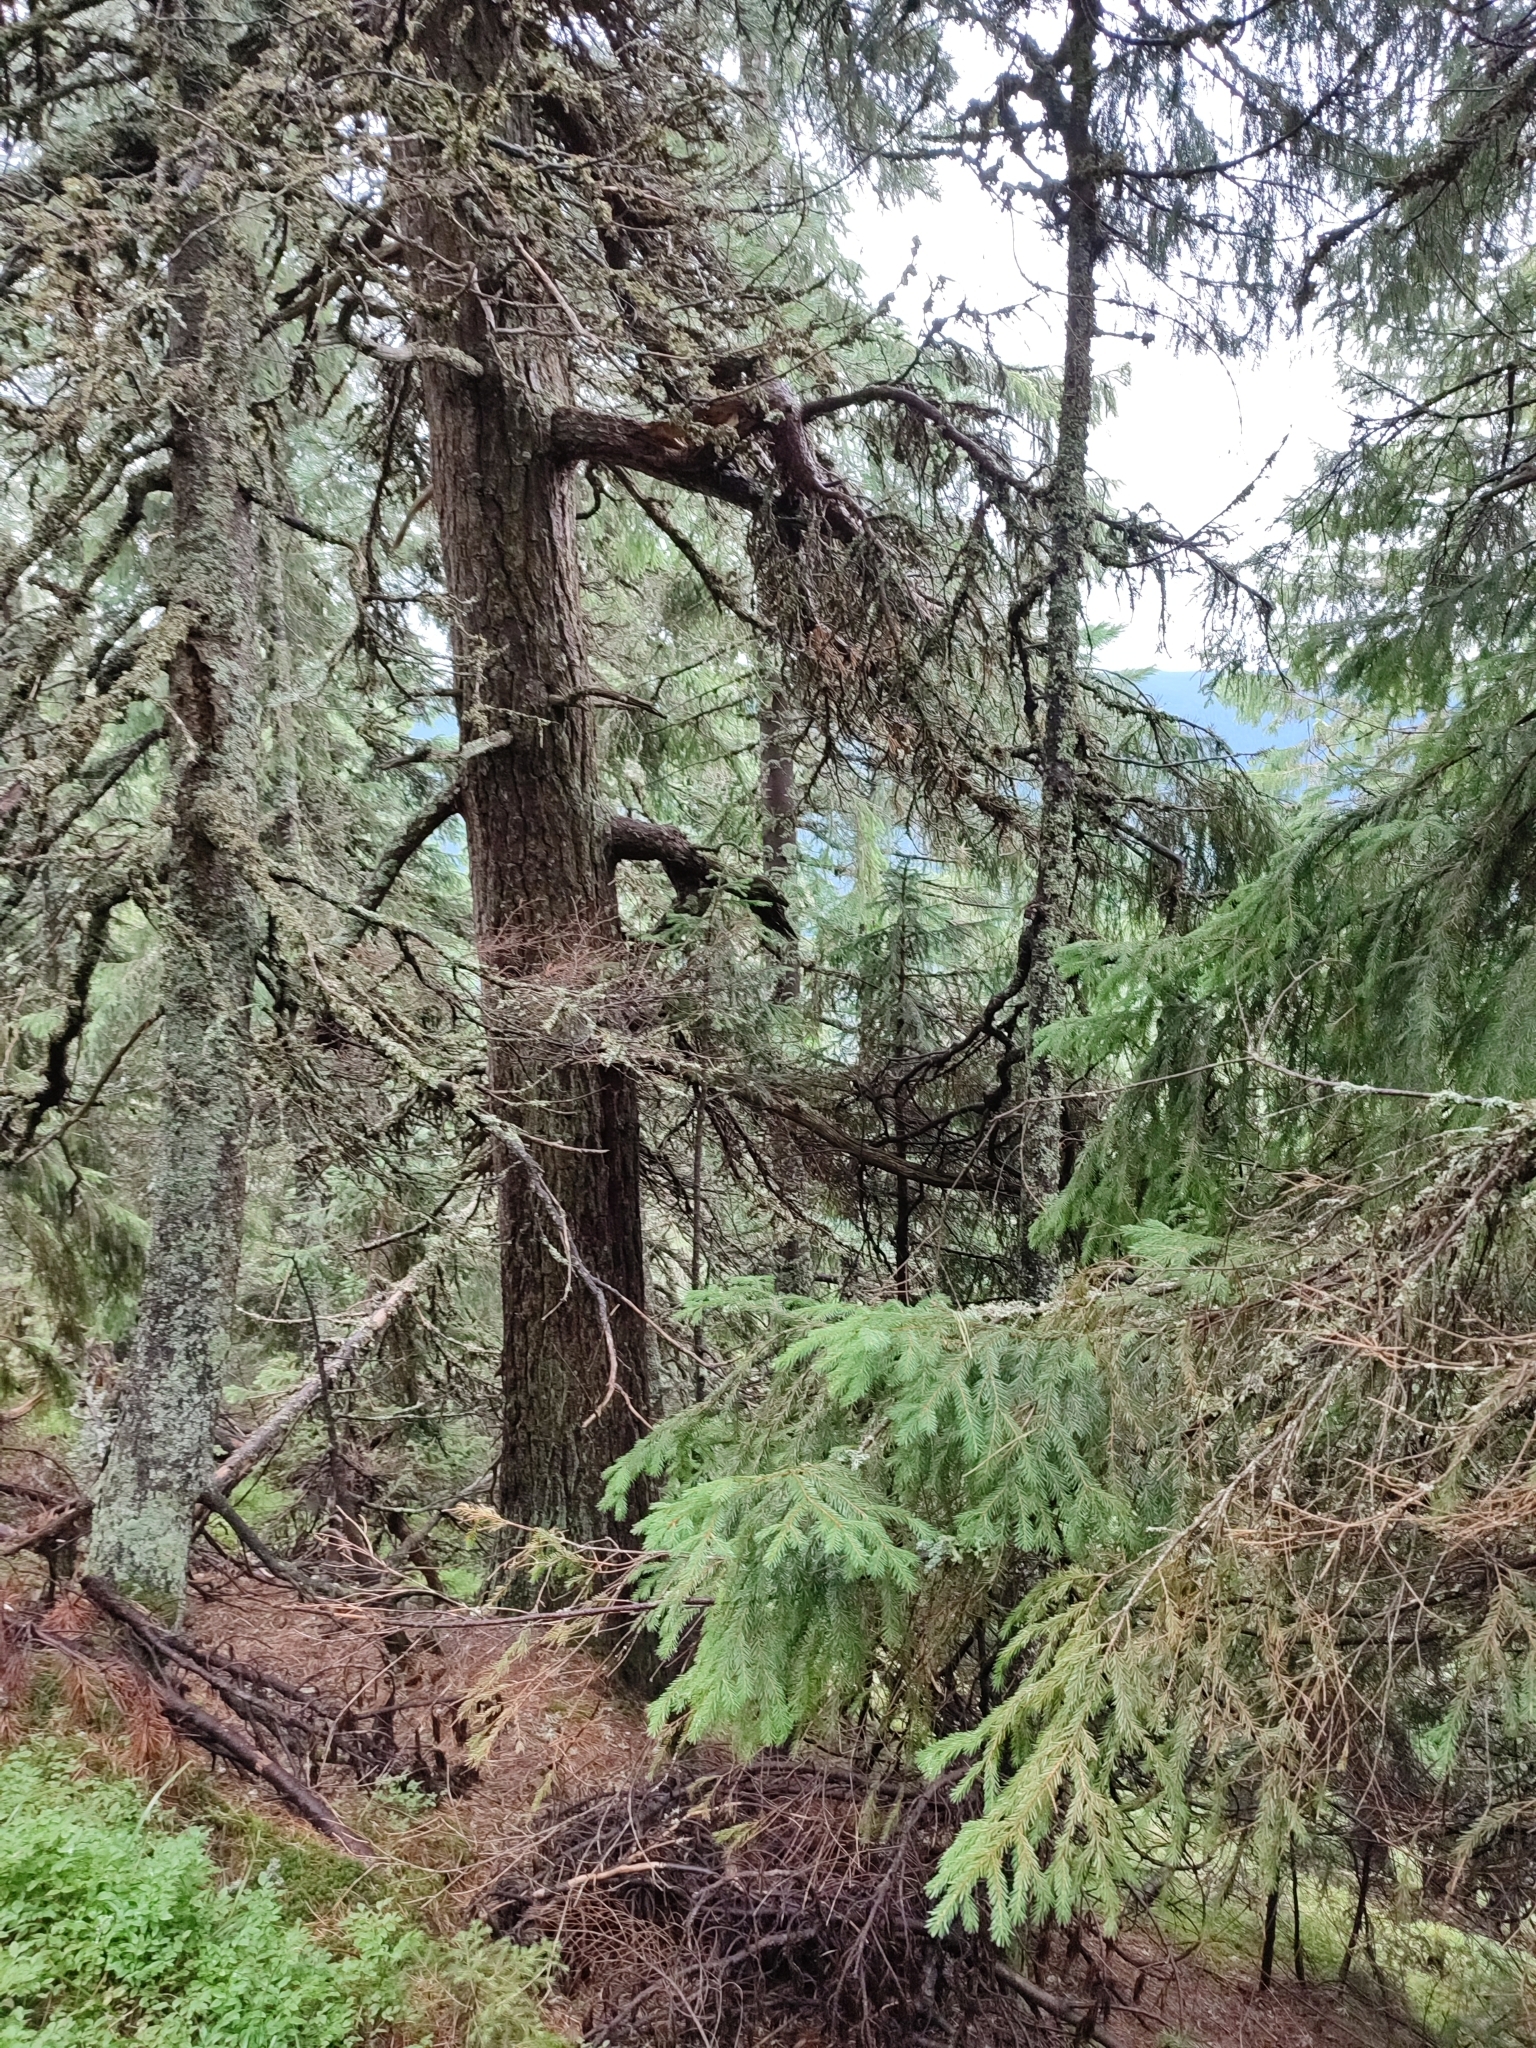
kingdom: Plantae
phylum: Tracheophyta
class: Pinopsida
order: Pinales
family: Pinaceae
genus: Picea
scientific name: Picea abies
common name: Norway spruce
